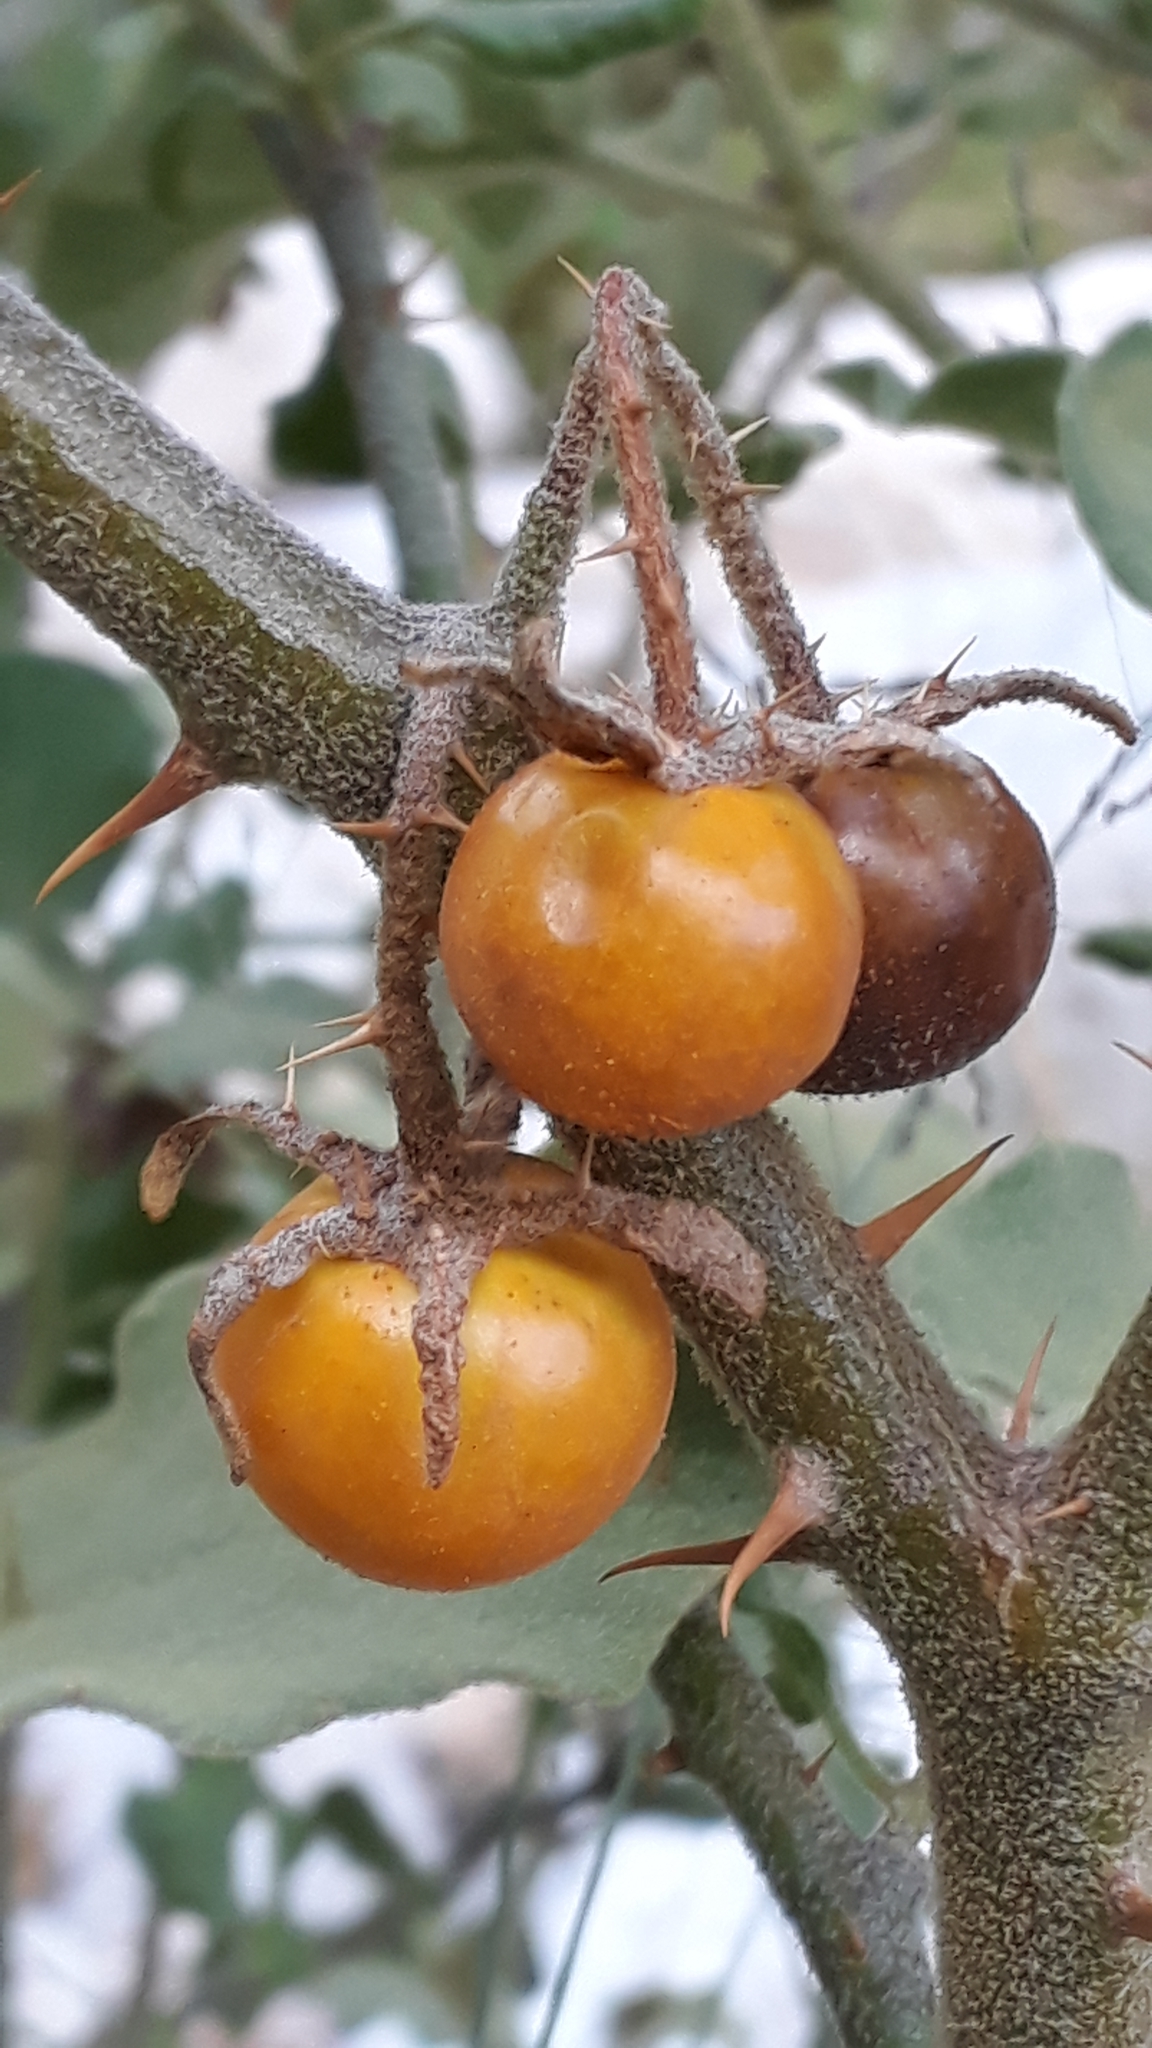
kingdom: Plantae
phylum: Tracheophyta
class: Magnoliopsida
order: Solanales
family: Solanaceae
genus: Solanum
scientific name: Solanum tomentosum
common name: Wild aubergine
